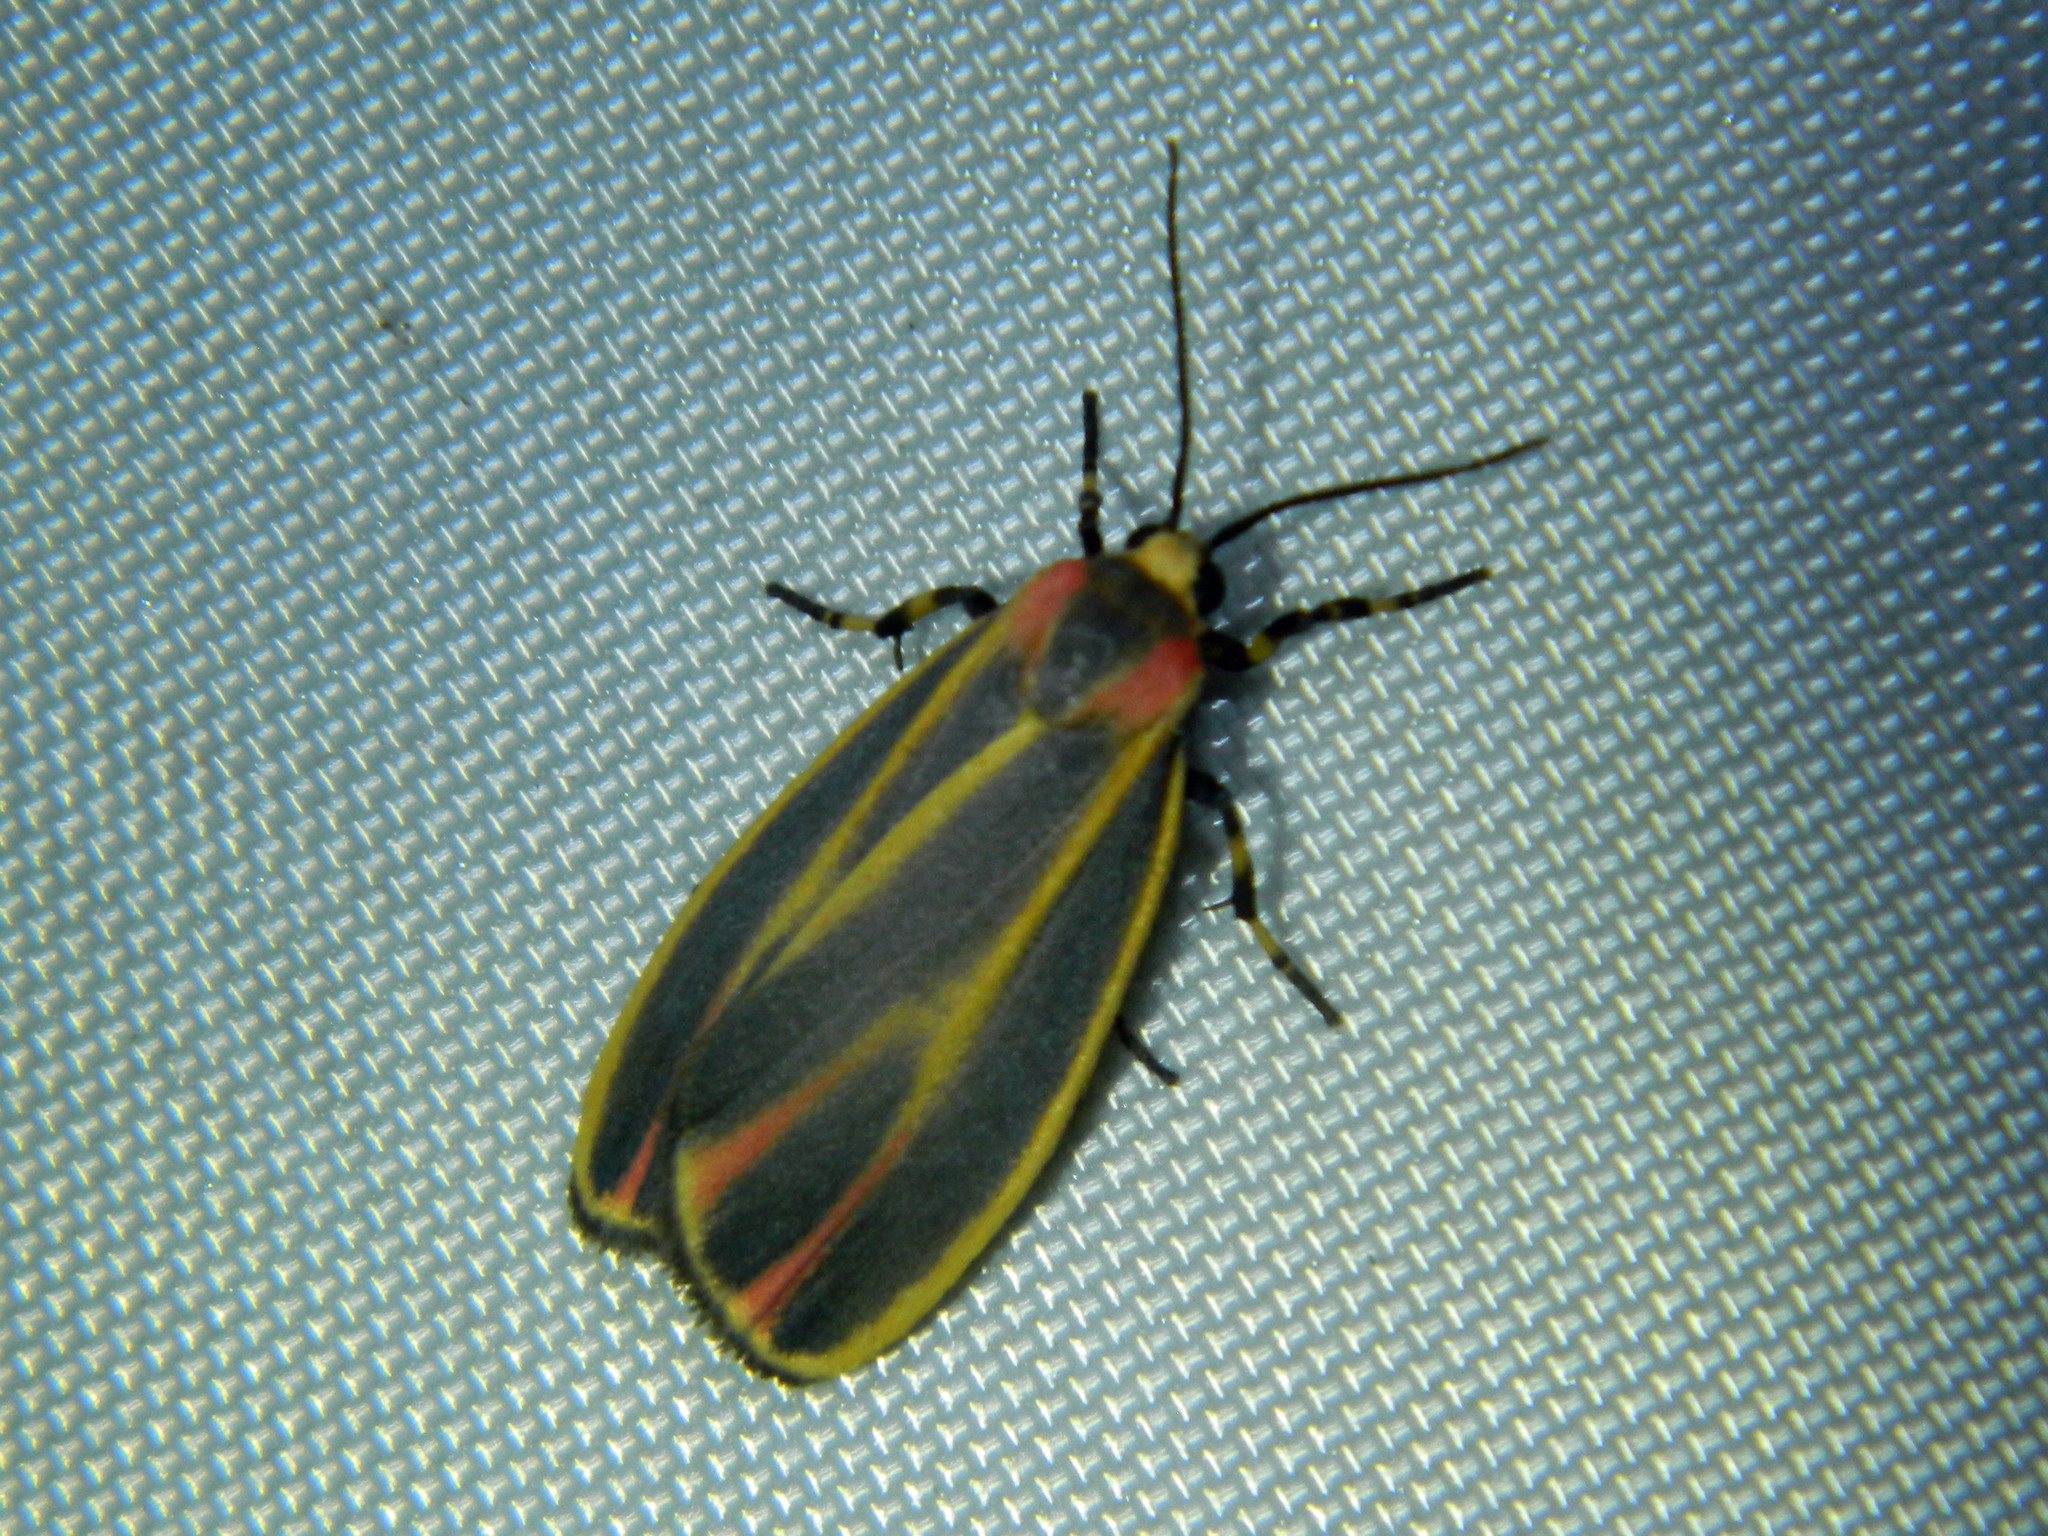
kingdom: Animalia
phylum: Arthropoda
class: Insecta
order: Lepidoptera
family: Erebidae
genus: Hypoprepia
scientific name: Hypoprepia fucosa
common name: Painted lichen moth
